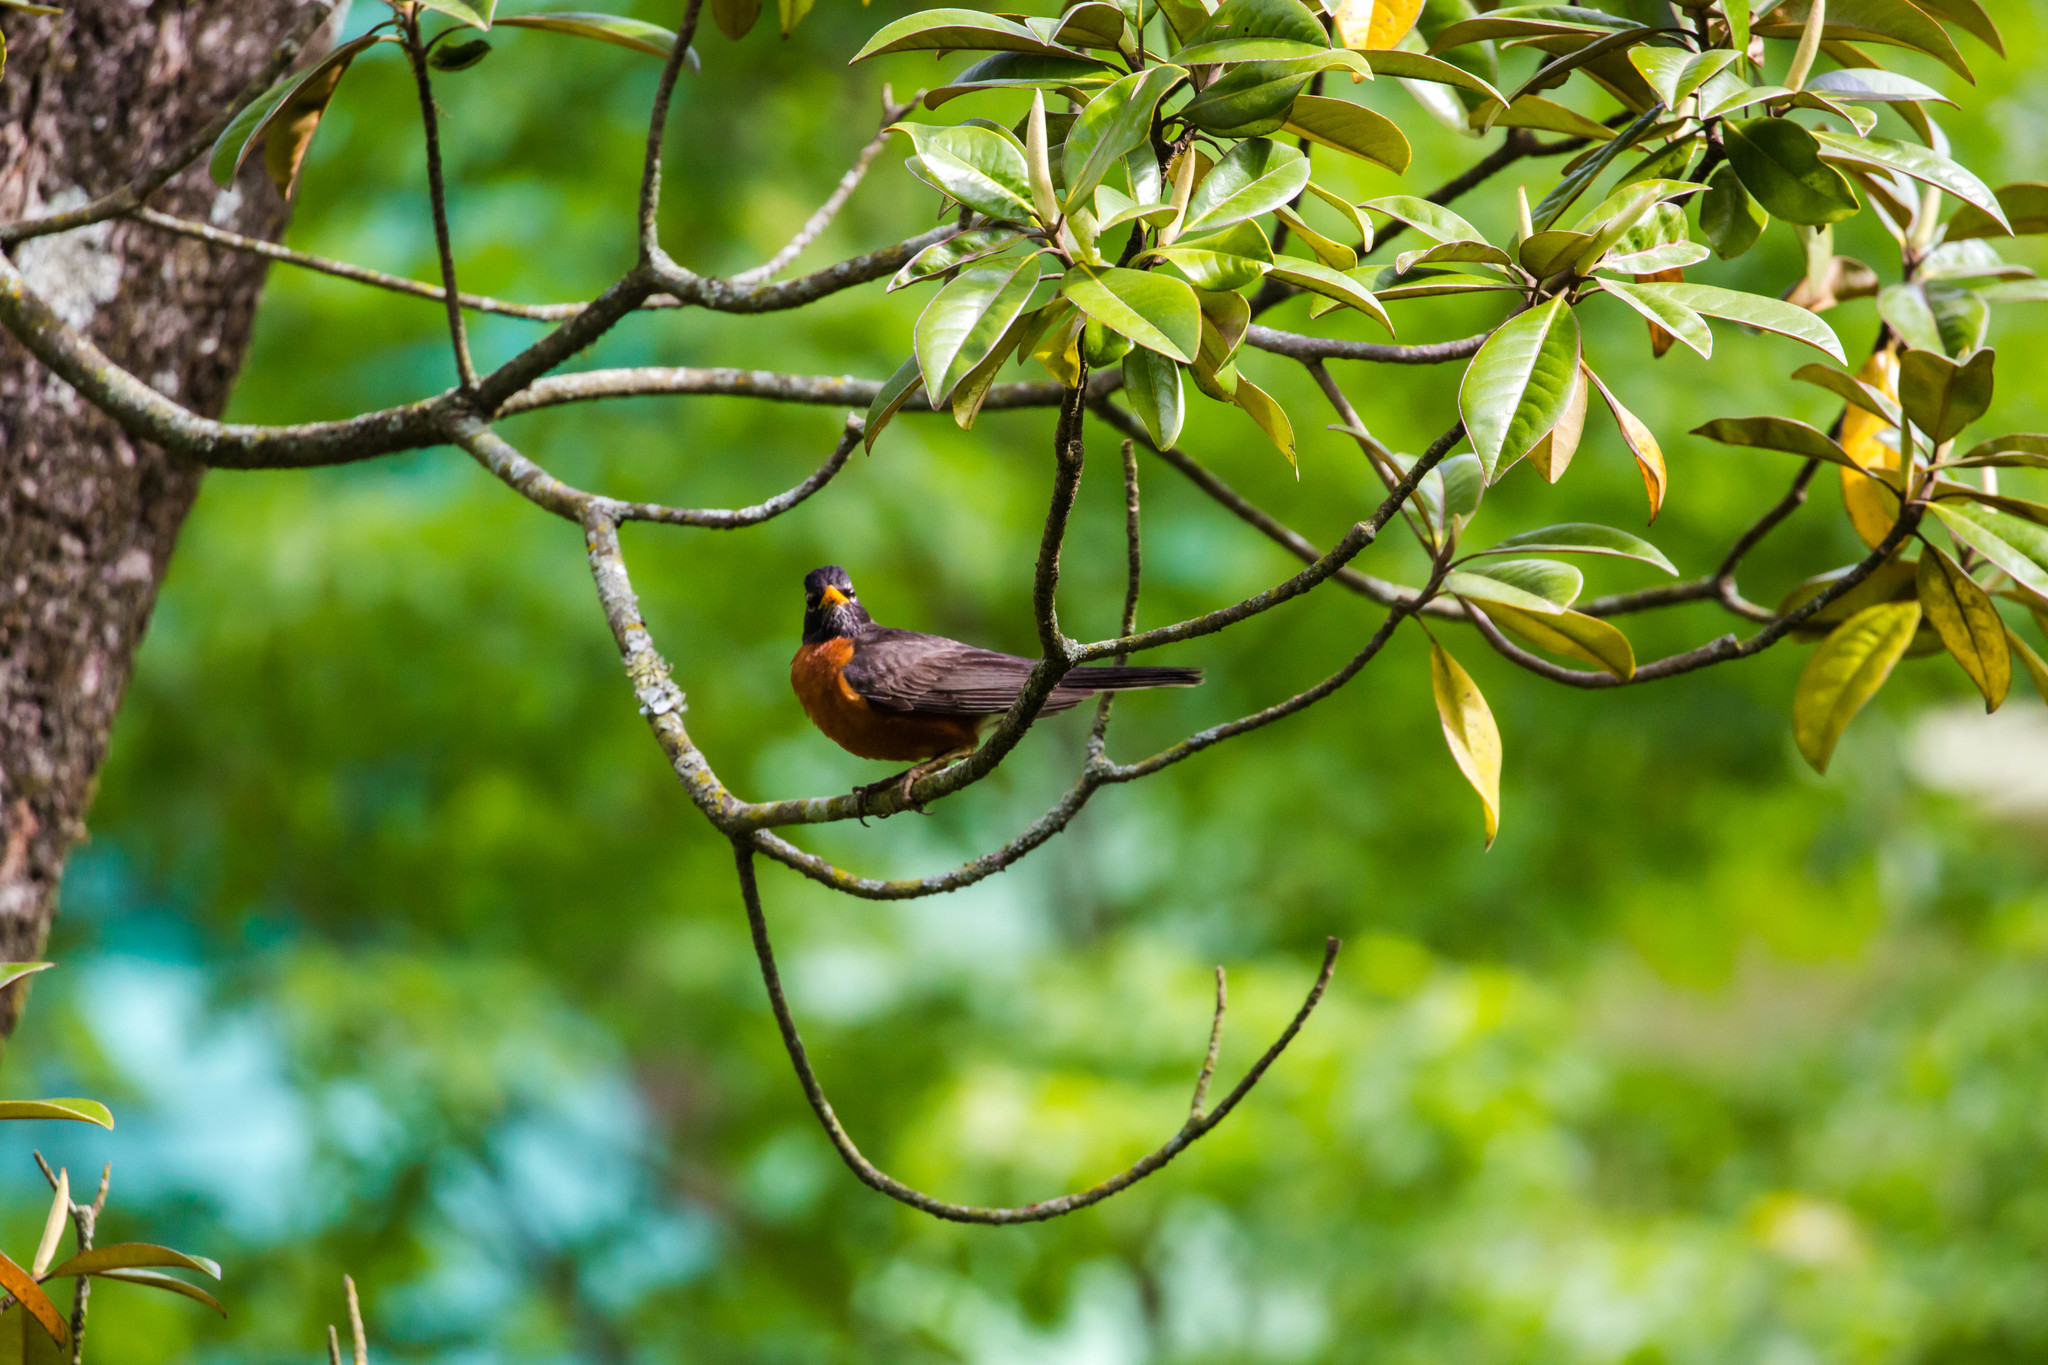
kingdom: Animalia
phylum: Chordata
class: Aves
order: Passeriformes
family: Turdidae
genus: Turdus
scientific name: Turdus migratorius
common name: American robin
